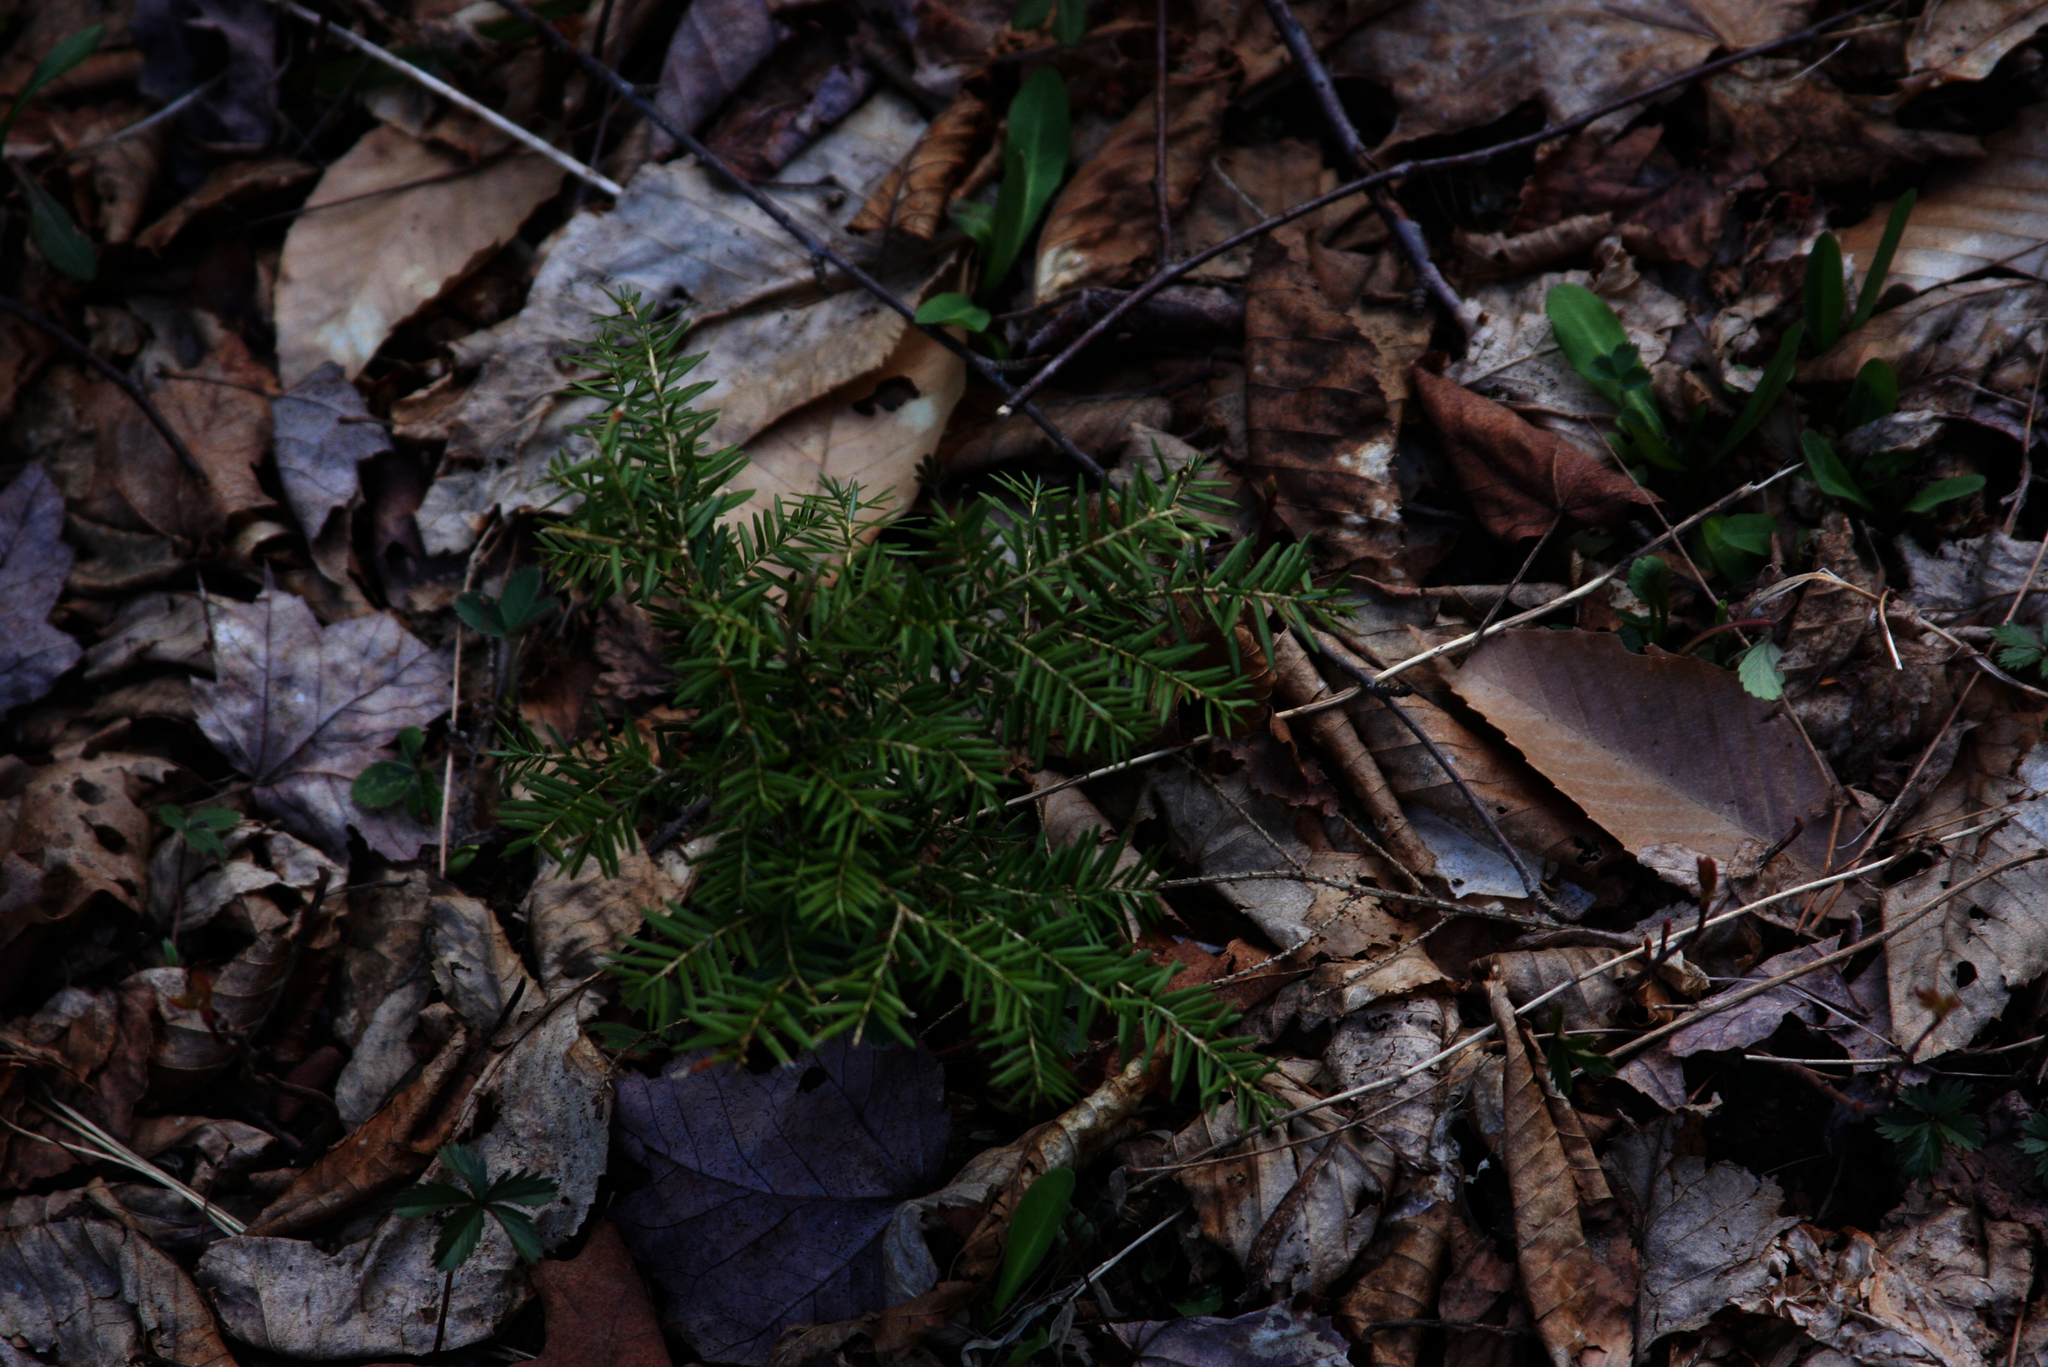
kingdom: Plantae
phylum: Tracheophyta
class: Pinopsida
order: Pinales
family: Pinaceae
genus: Tsuga
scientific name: Tsuga canadensis
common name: Eastern hemlock
